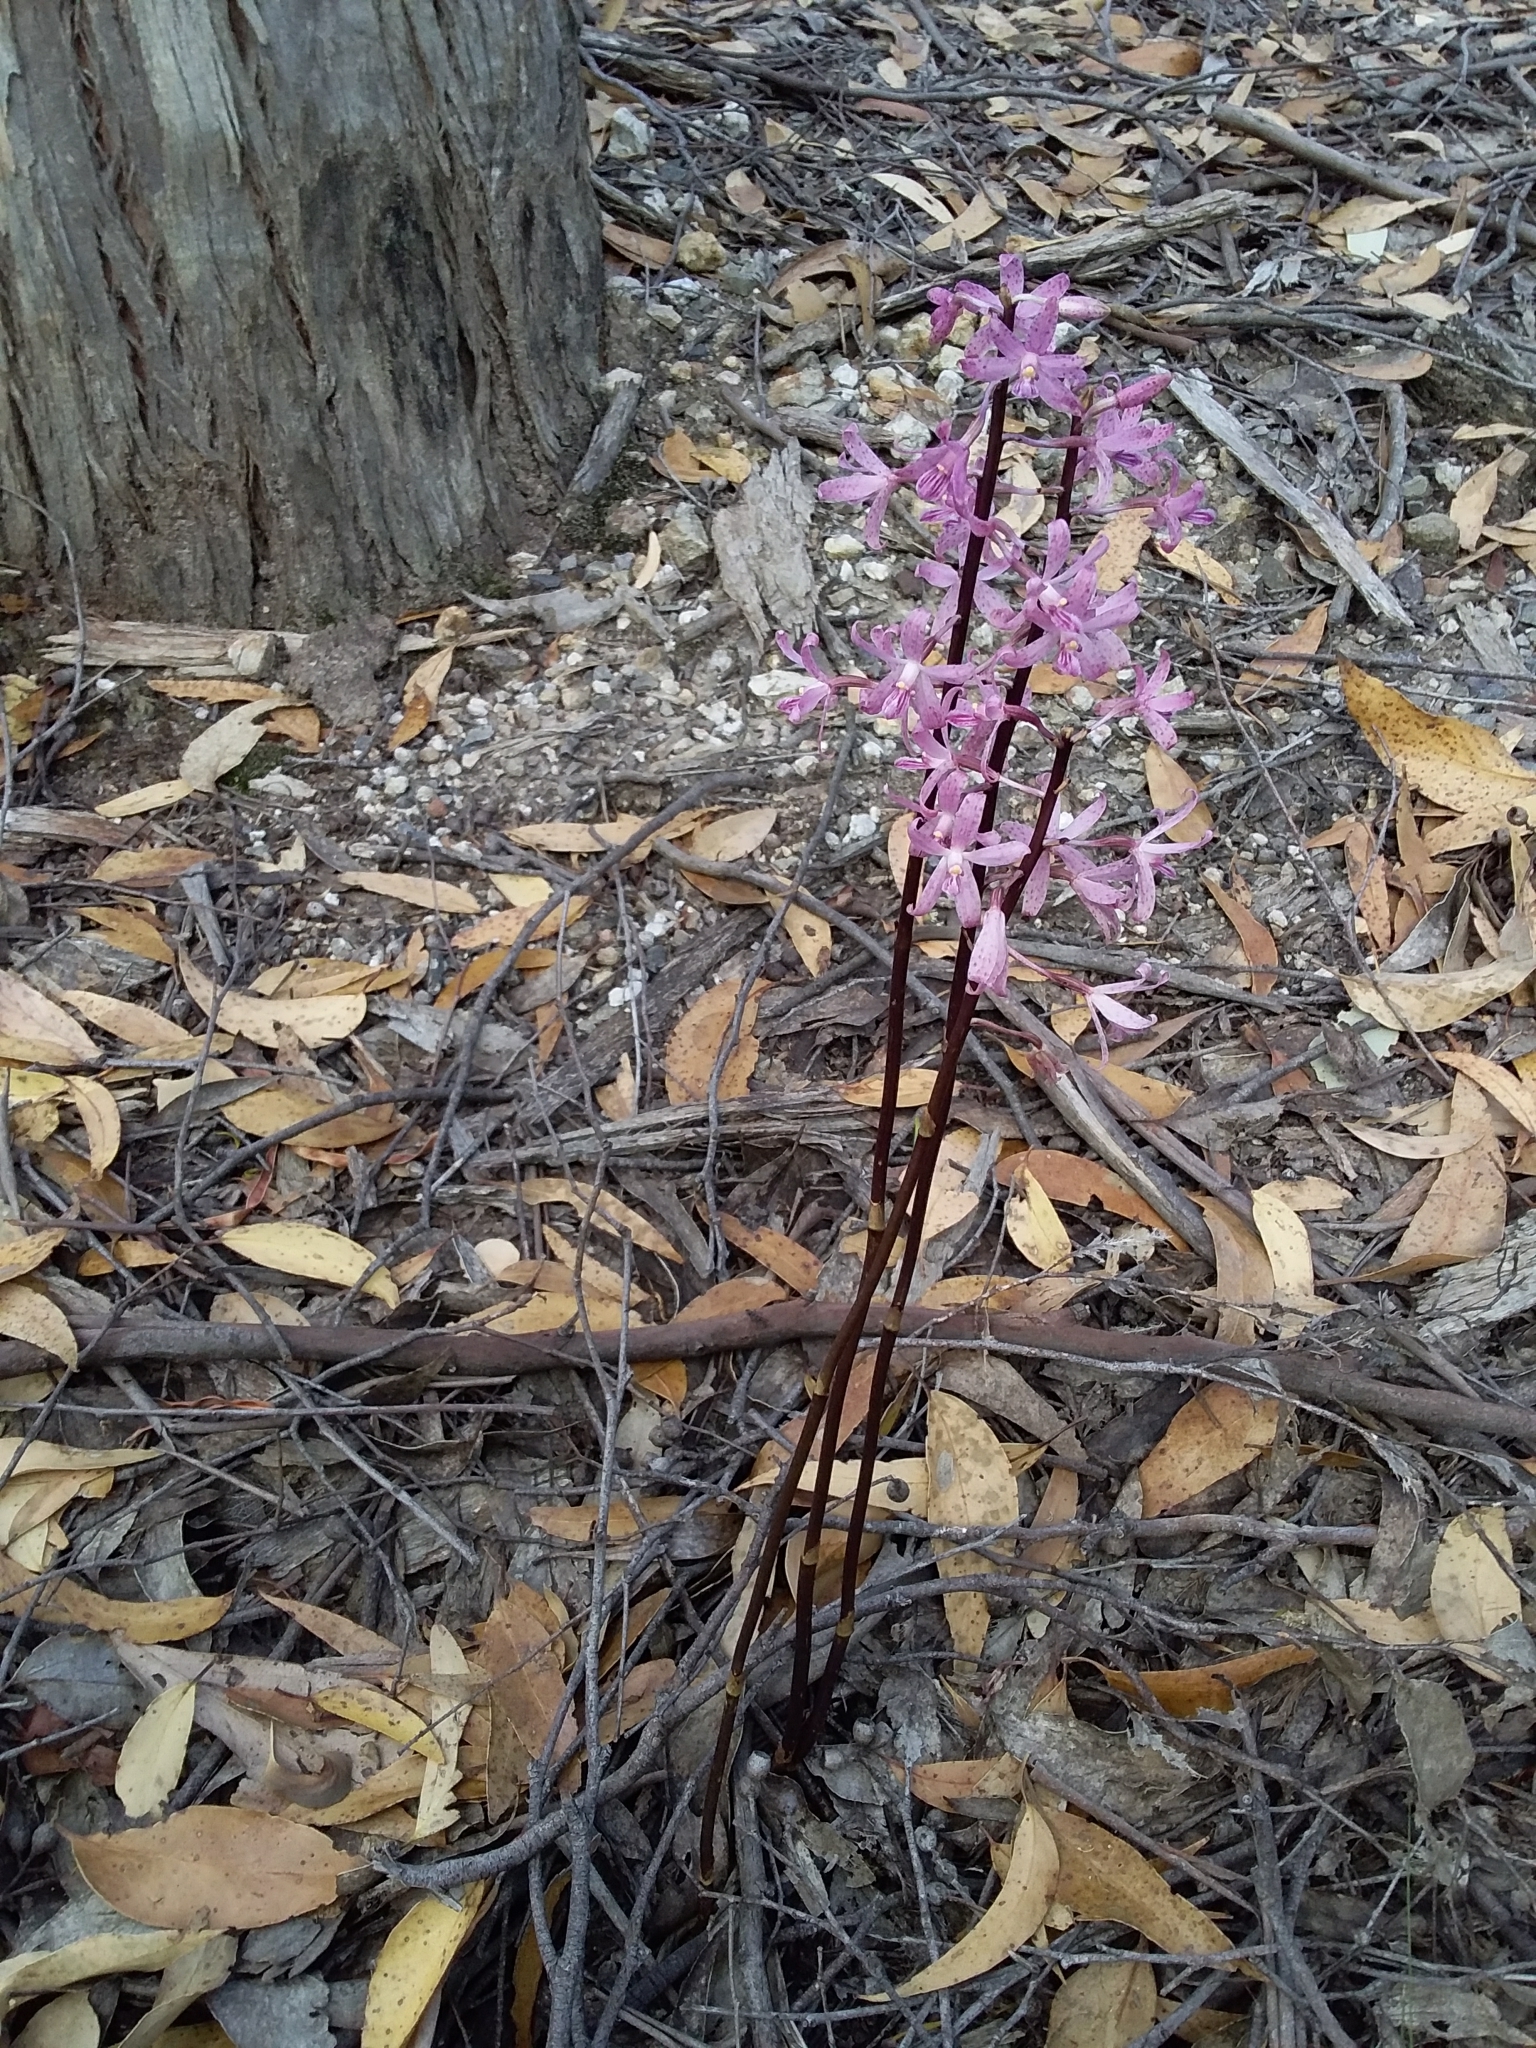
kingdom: Plantae
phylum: Tracheophyta
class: Liliopsida
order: Asparagales
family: Orchidaceae
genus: Dipodium
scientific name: Dipodium roseum
